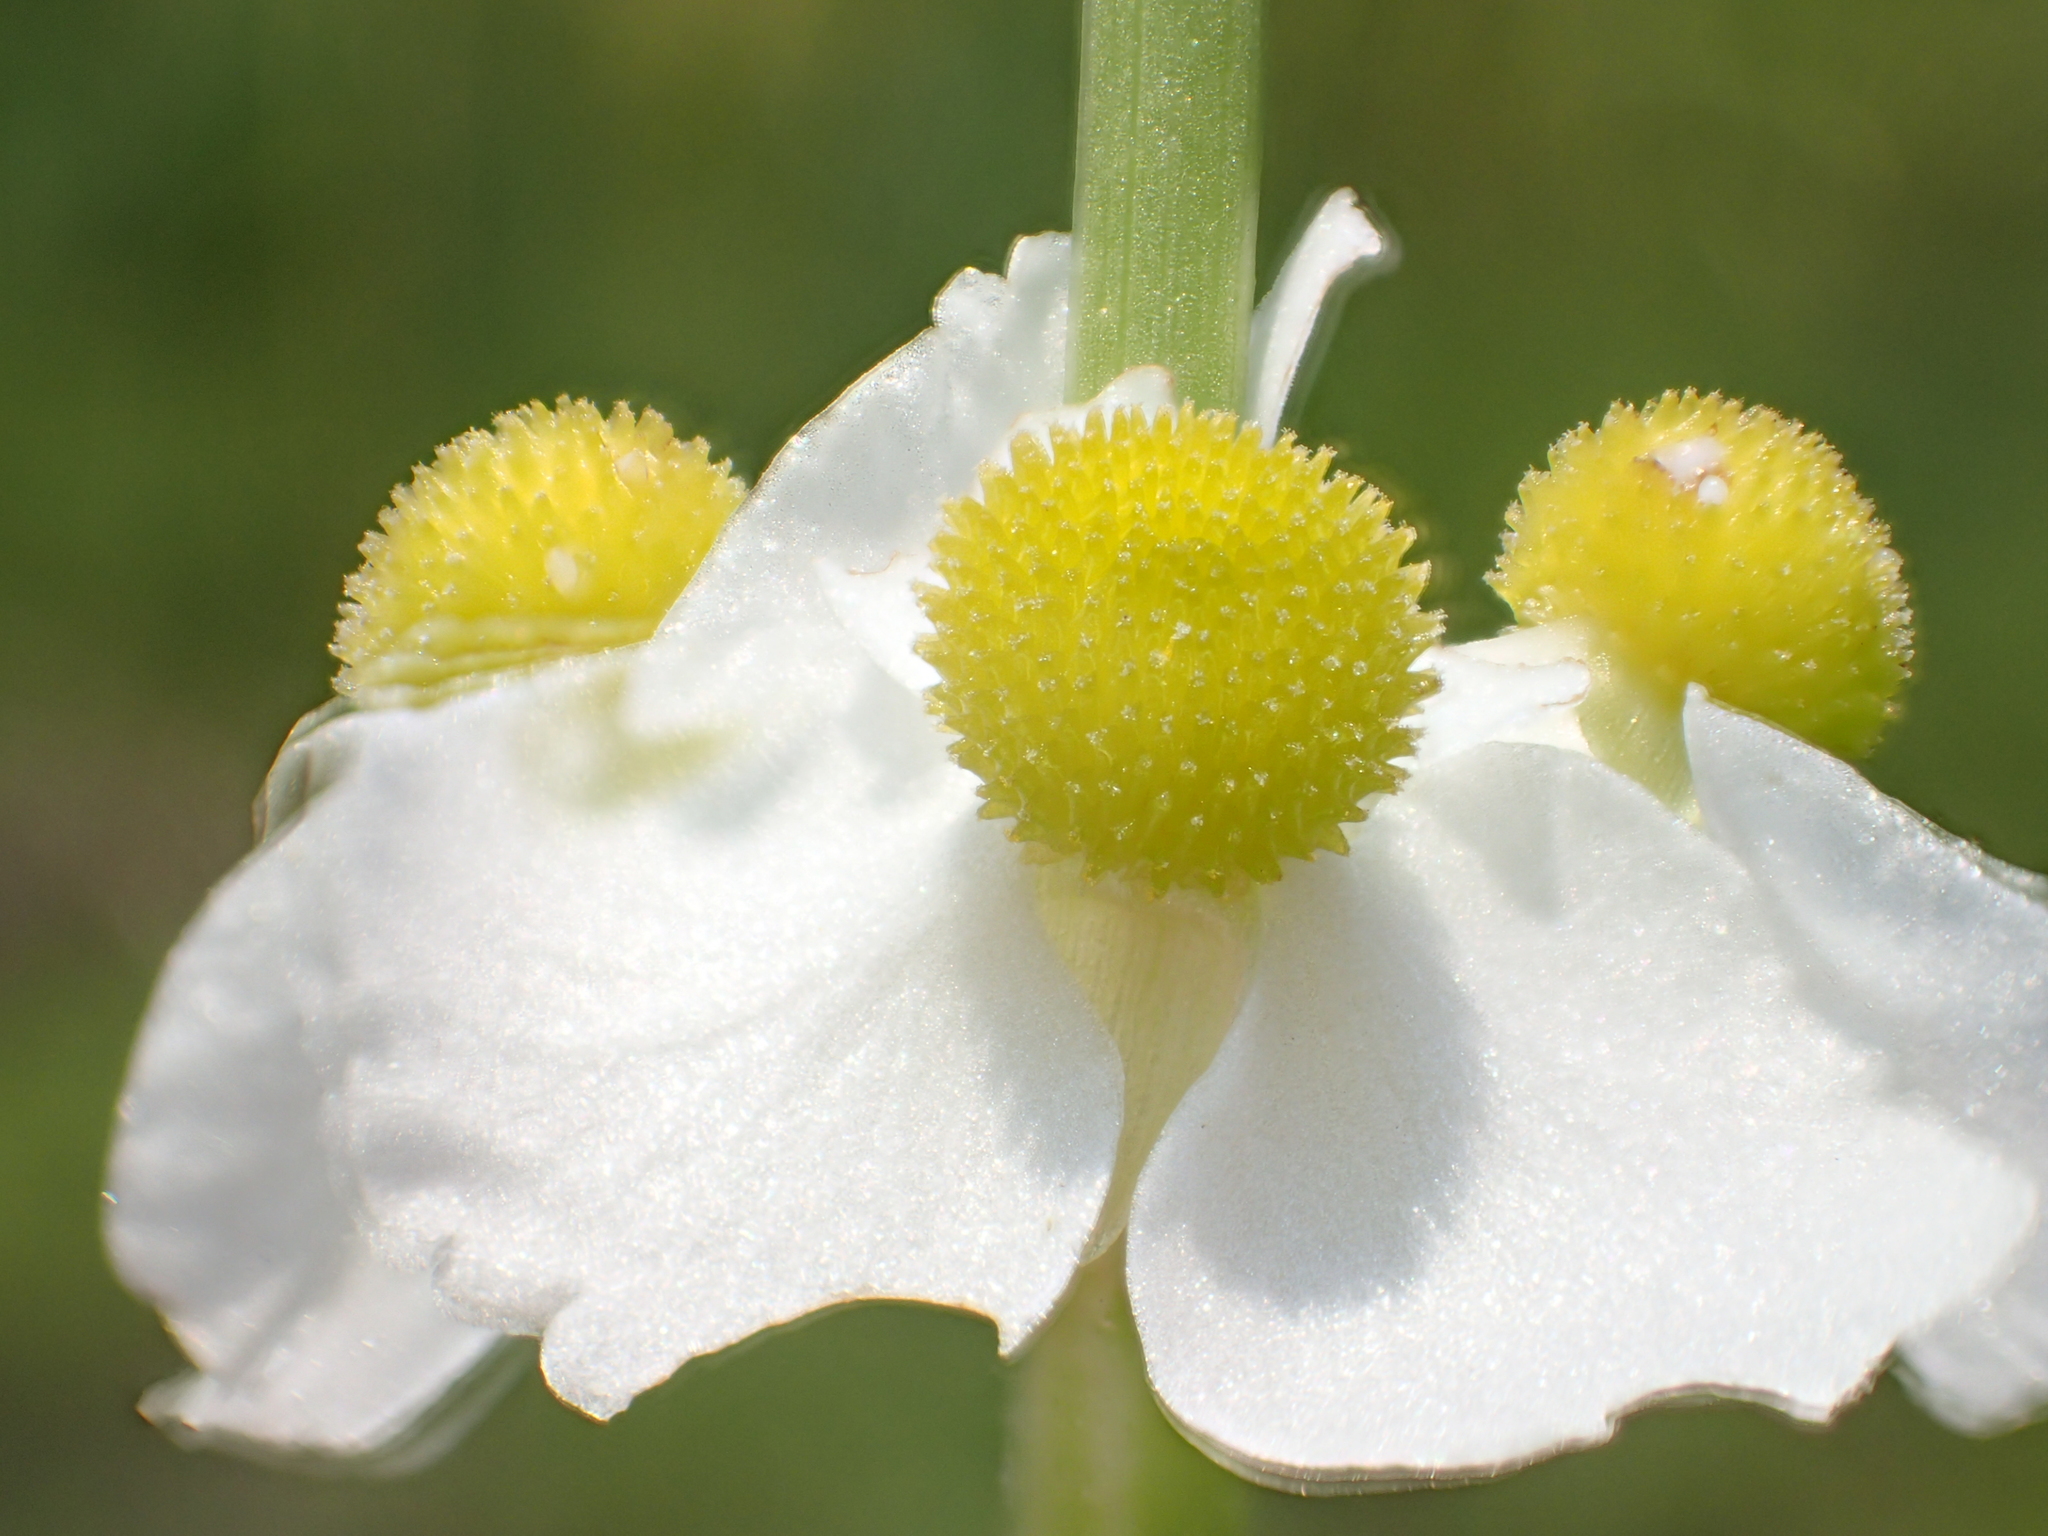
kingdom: Plantae
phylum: Tracheophyta
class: Liliopsida
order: Alismatales
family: Alismataceae
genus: Sagittaria
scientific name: Sagittaria trifolia
